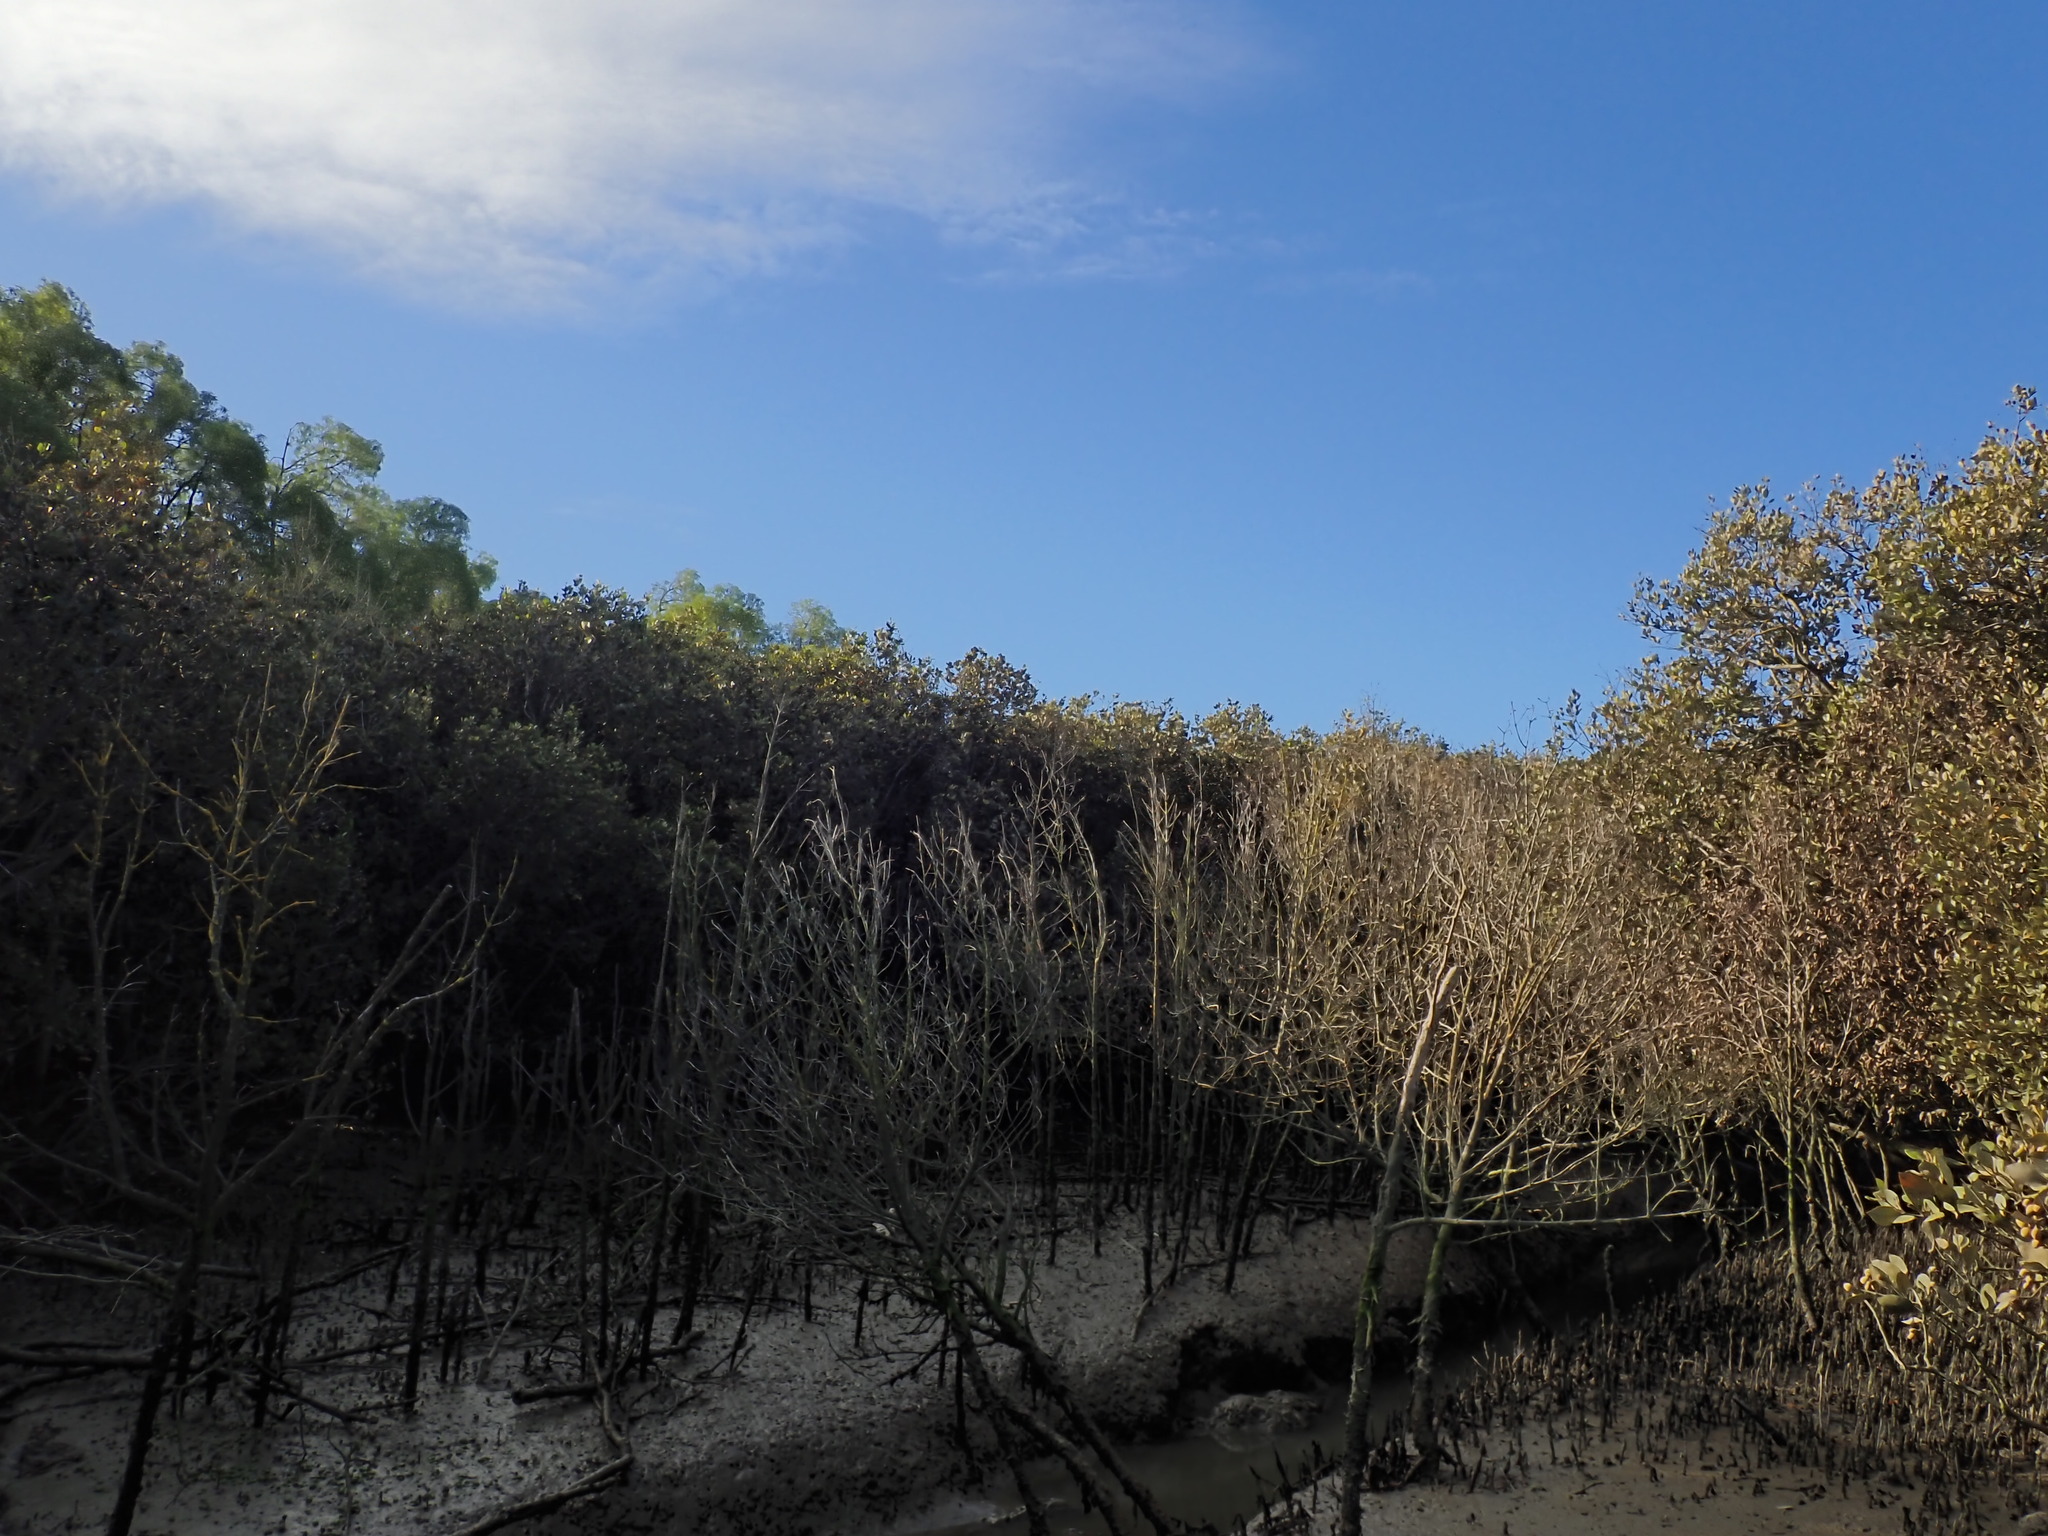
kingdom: Plantae
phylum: Tracheophyta
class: Magnoliopsida
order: Lamiales
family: Acanthaceae
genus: Avicennia
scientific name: Avicennia marina
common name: Gray mangrove
